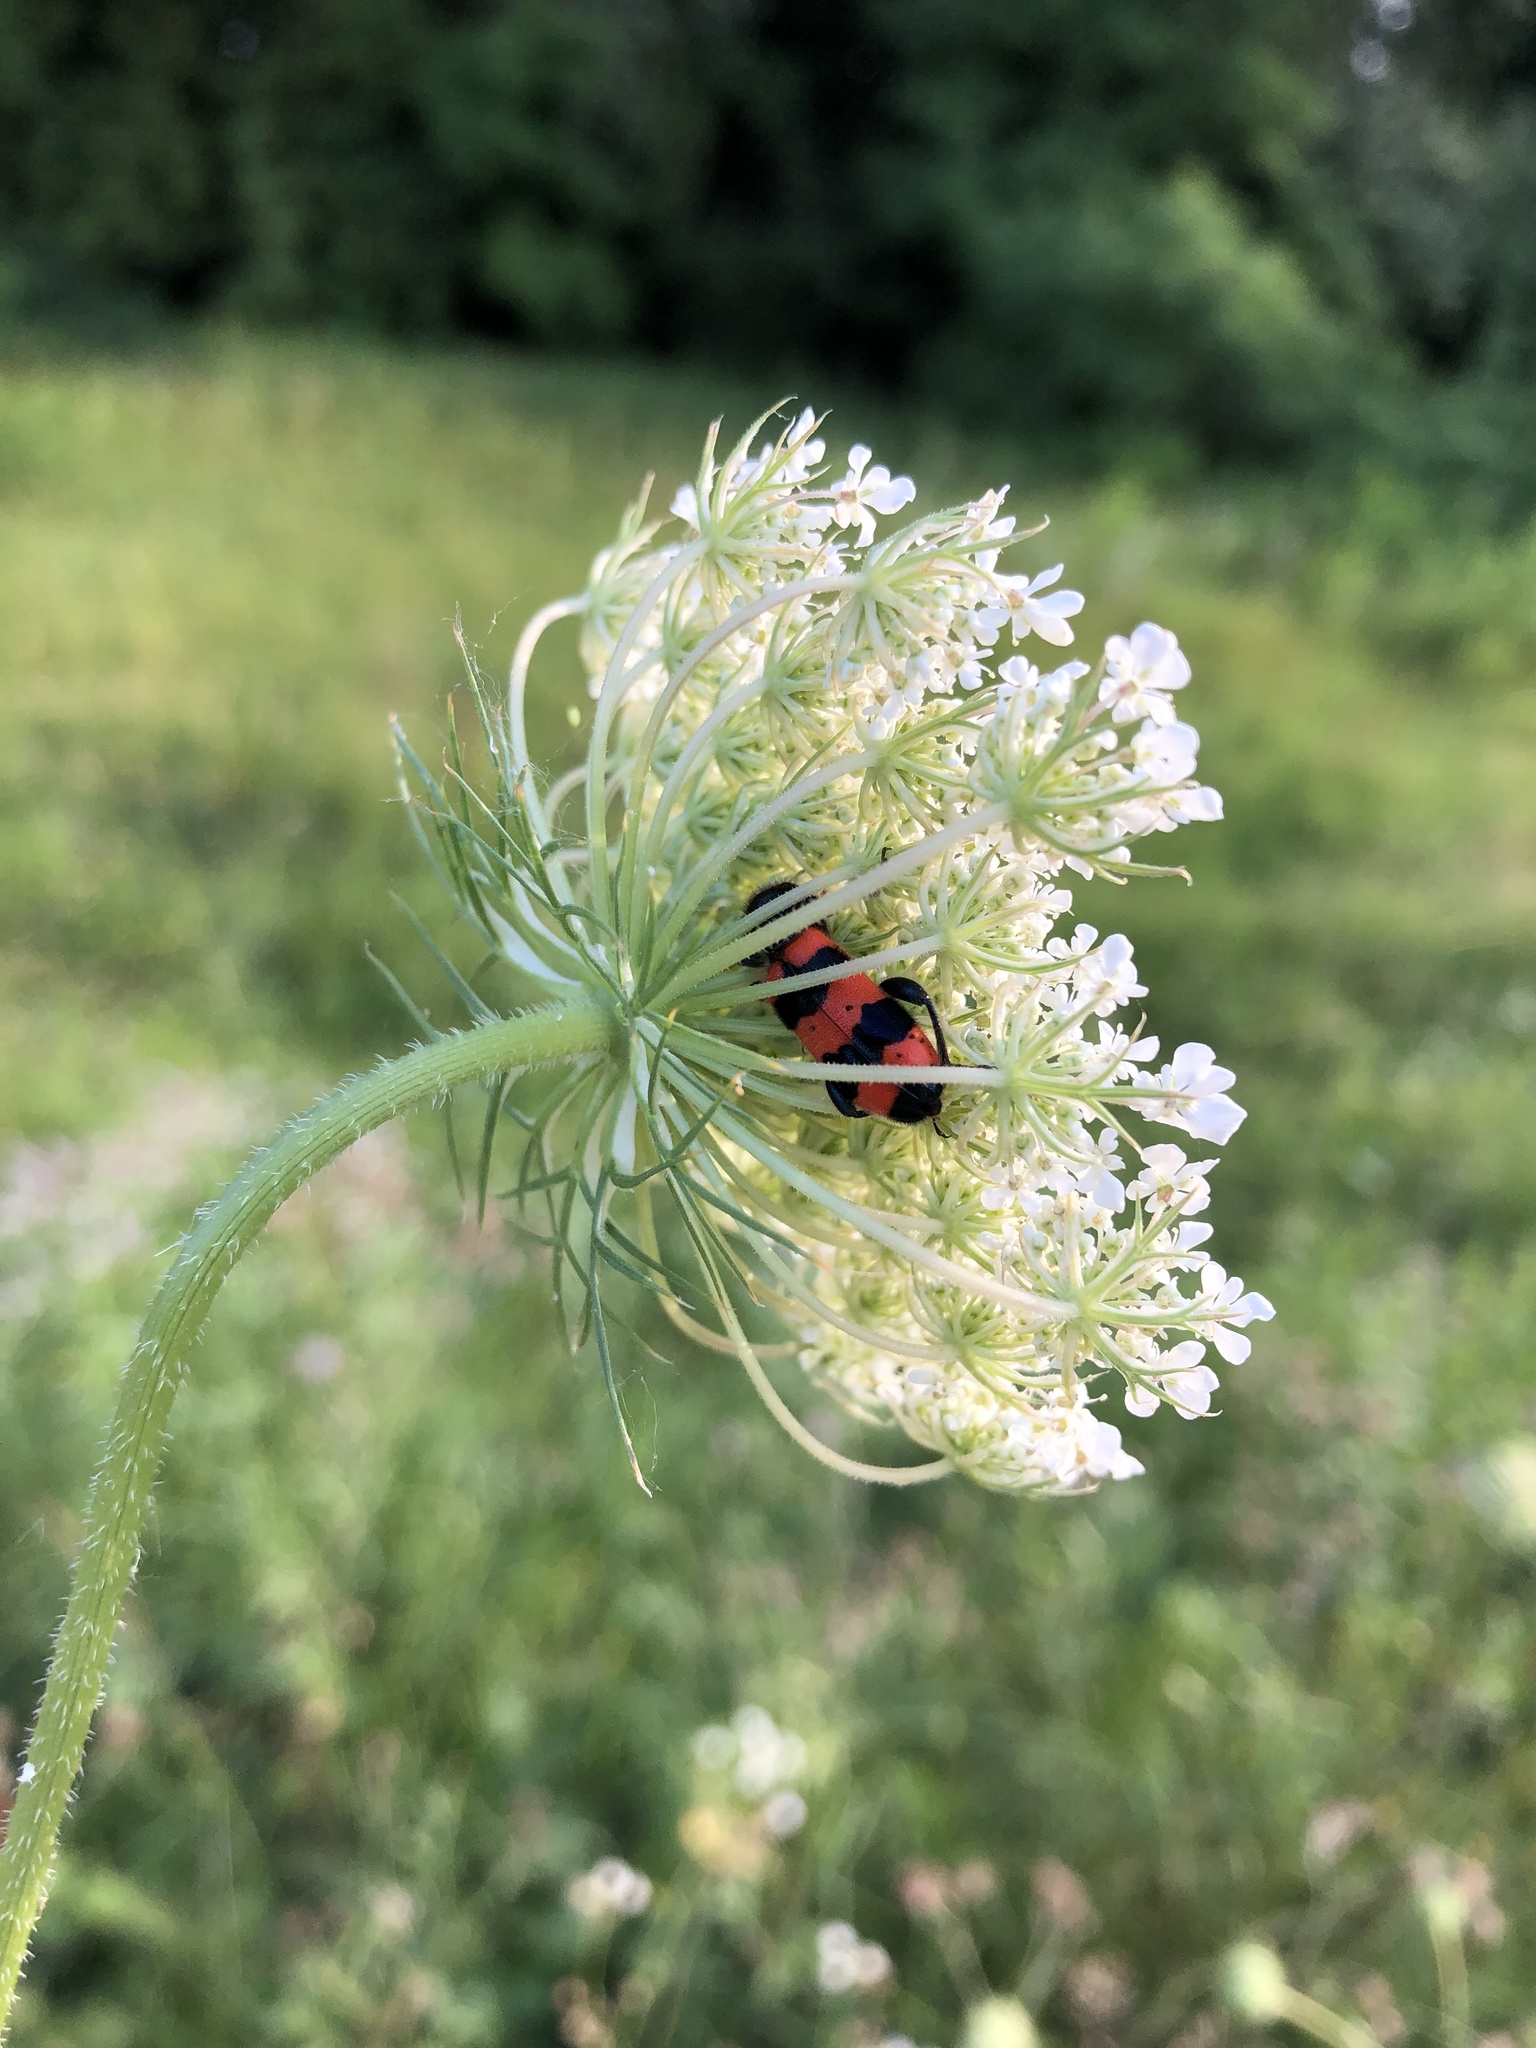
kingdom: Animalia
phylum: Arthropoda
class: Insecta
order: Coleoptera
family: Cleridae
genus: Trichodes
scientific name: Trichodes apiarius
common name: Bee-eating beetle
